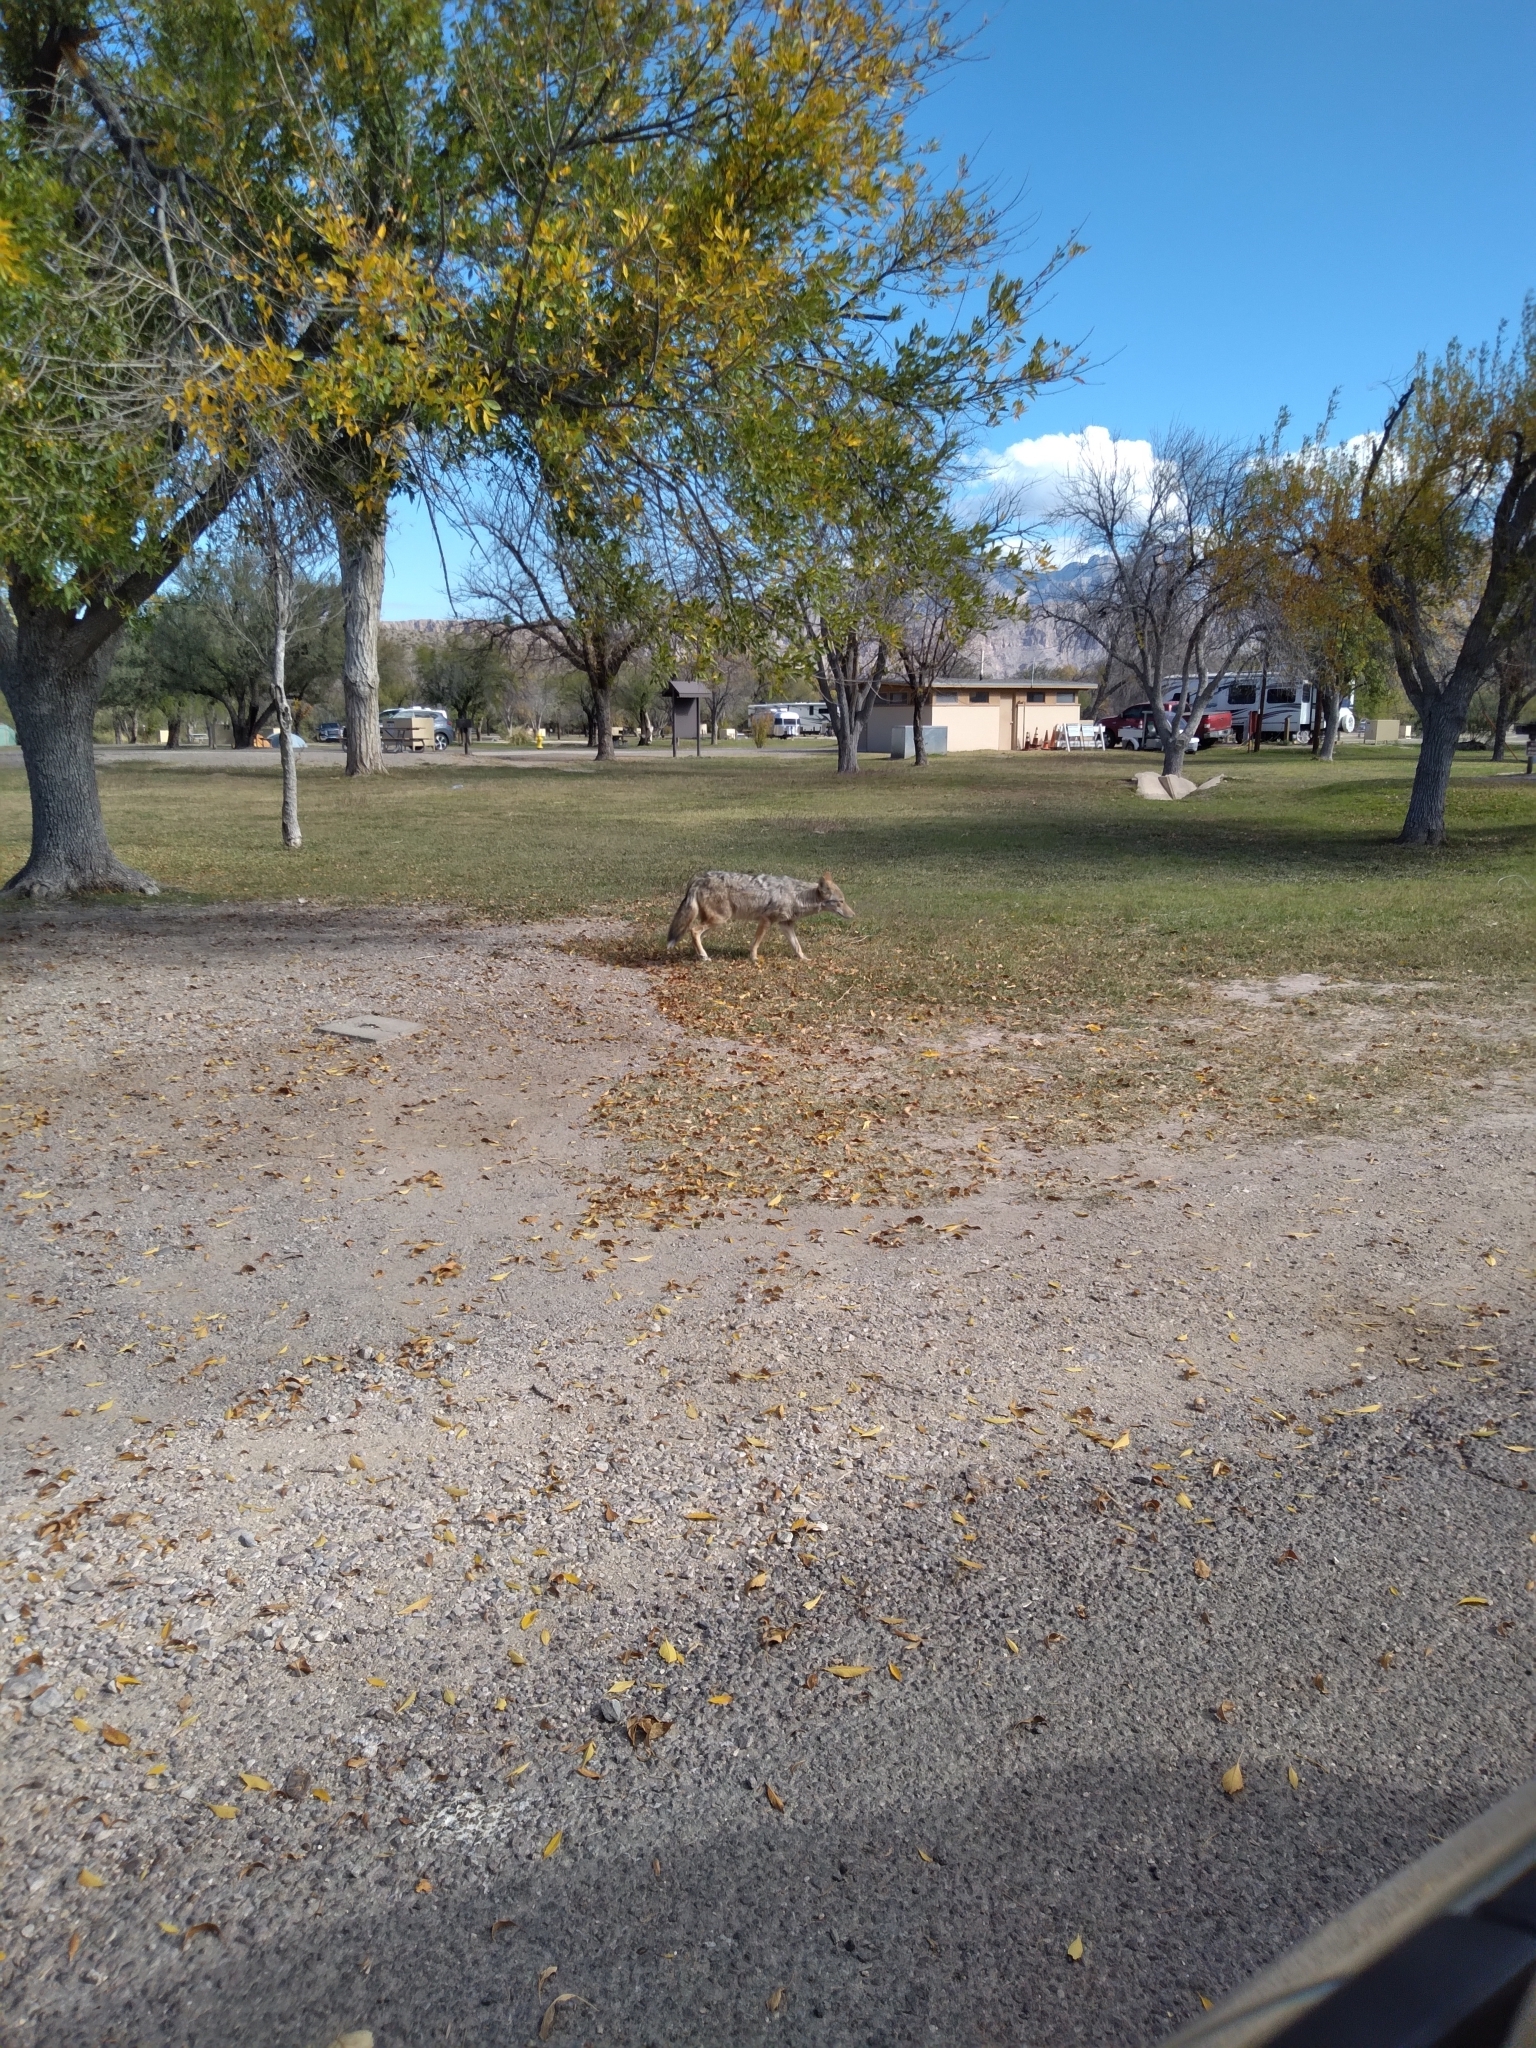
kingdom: Animalia
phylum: Chordata
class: Mammalia
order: Carnivora
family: Canidae
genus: Canis
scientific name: Canis latrans
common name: Coyote
